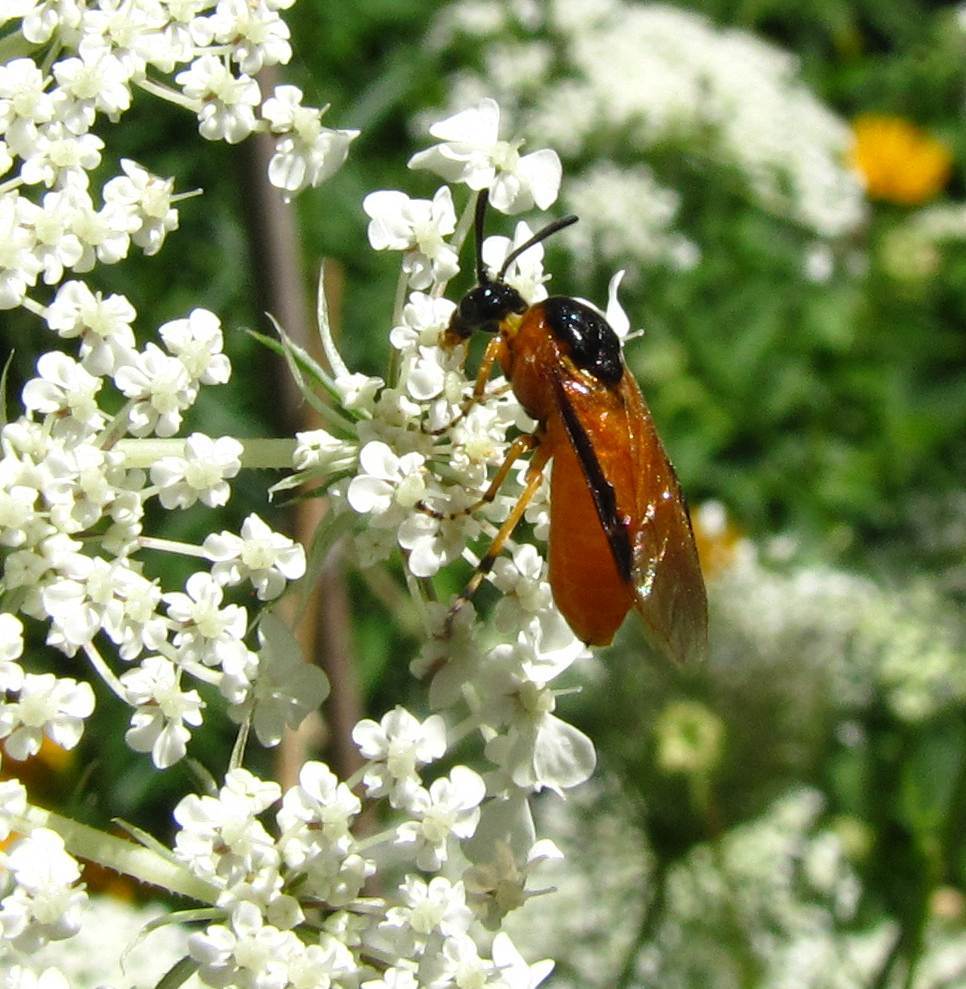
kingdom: Animalia
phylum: Arthropoda
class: Insecta
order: Hymenoptera
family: Argidae
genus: Arge
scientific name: Arge ochropus
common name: Argid sawfly
